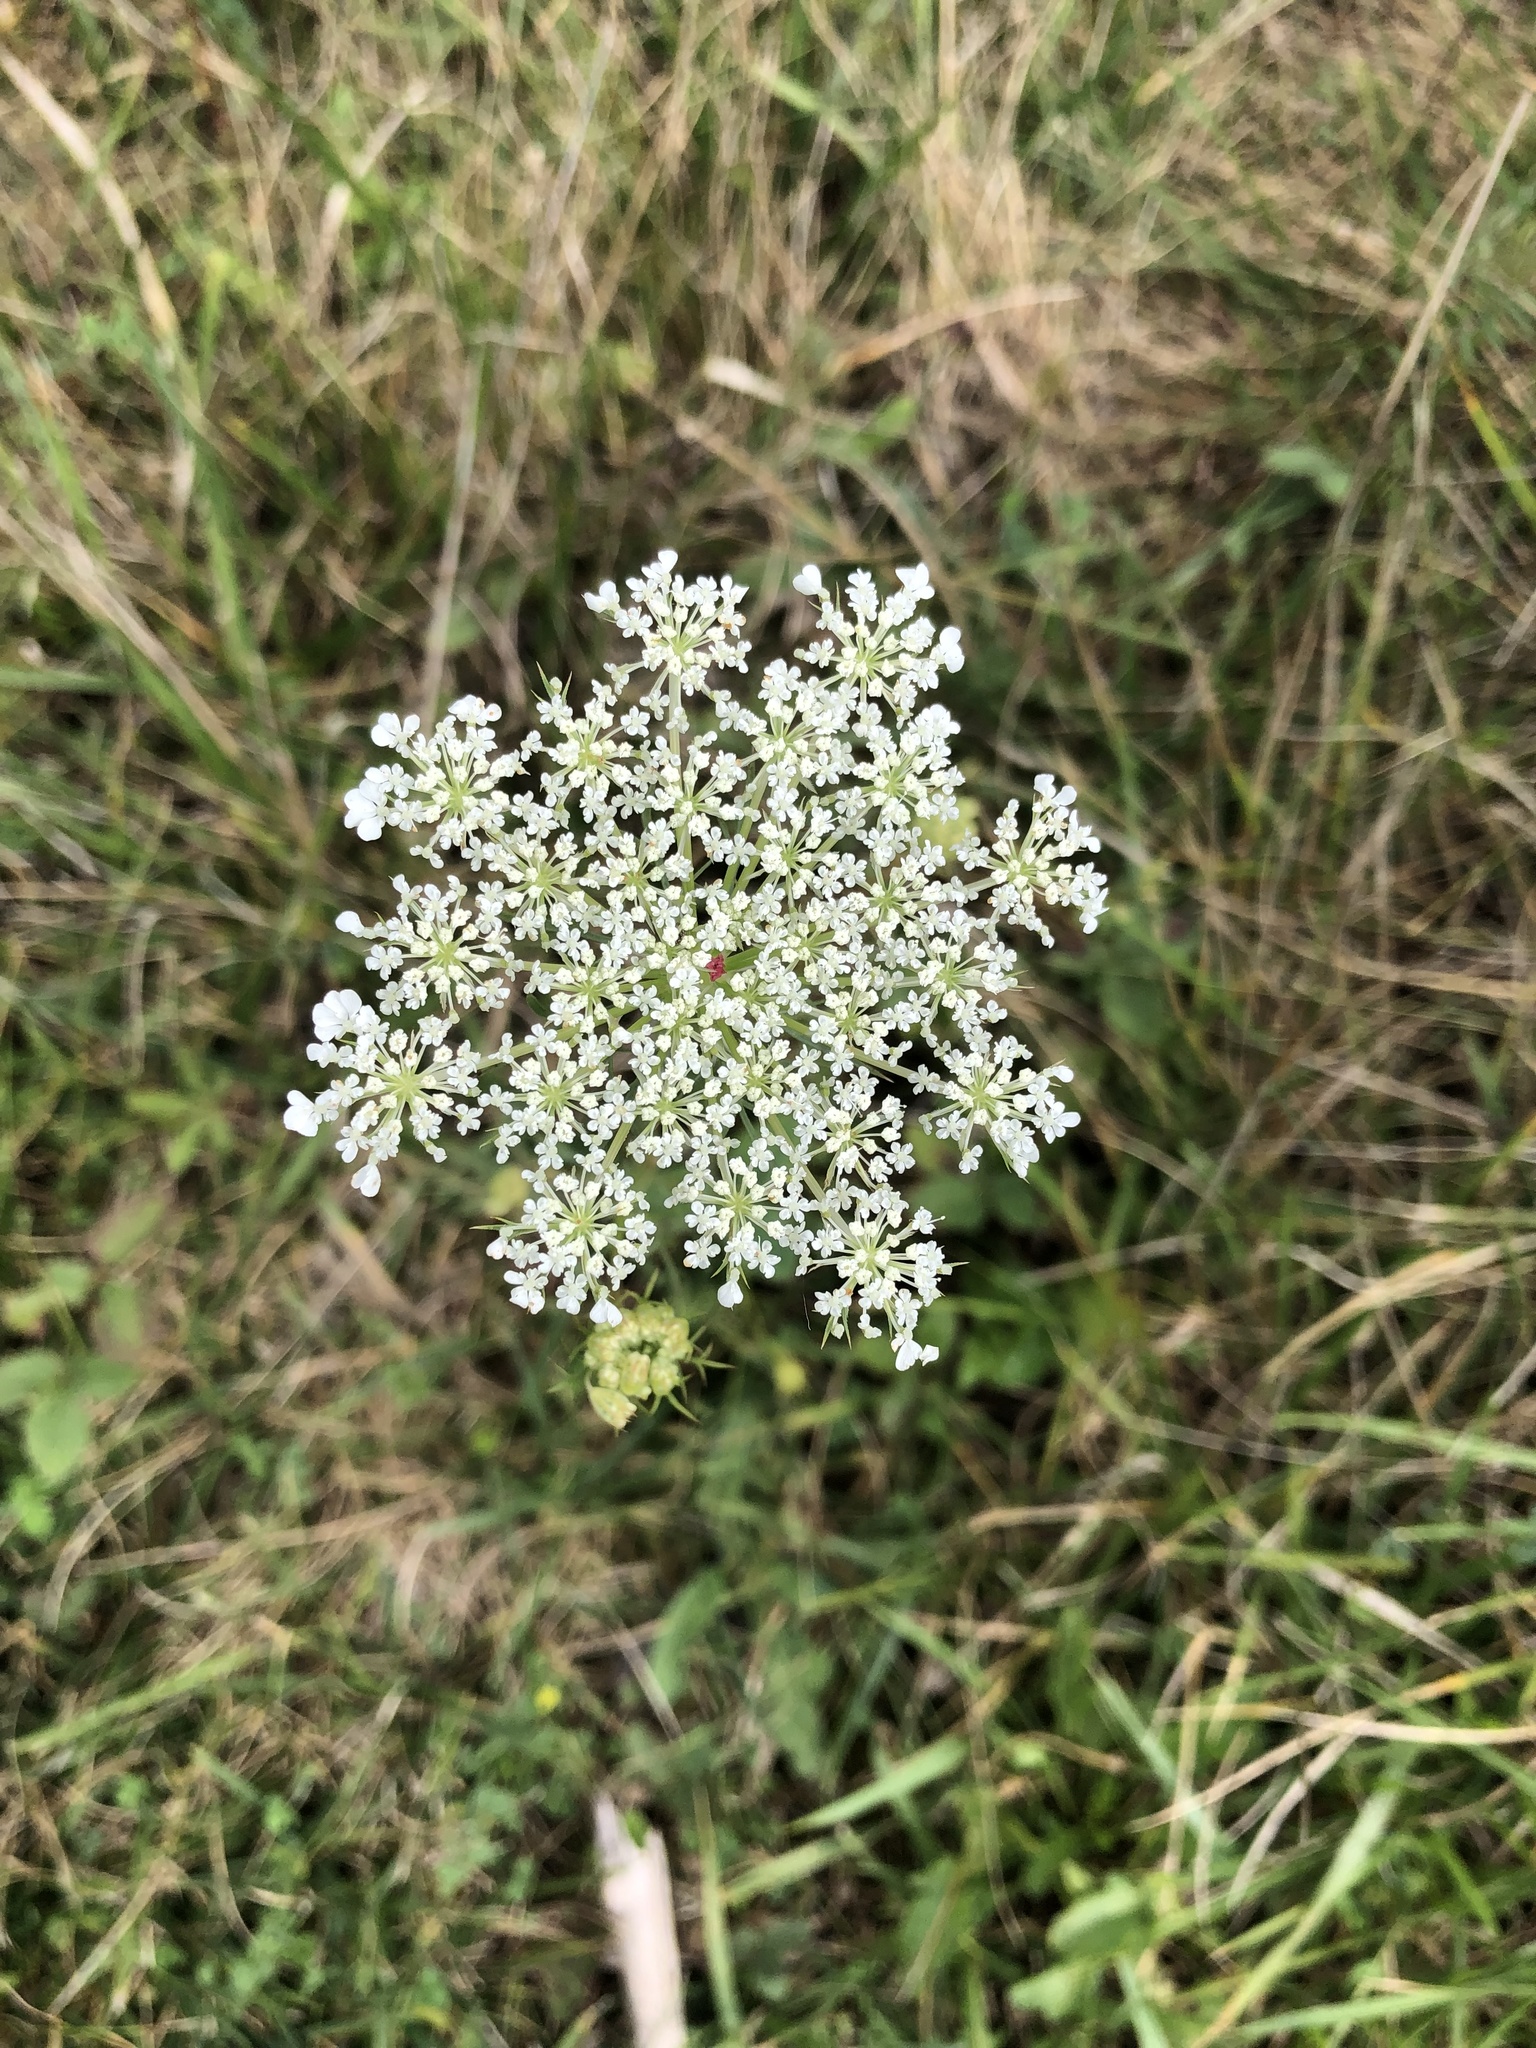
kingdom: Plantae
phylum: Tracheophyta
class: Magnoliopsida
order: Apiales
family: Apiaceae
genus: Daucus
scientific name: Daucus carota
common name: Wild carrot
